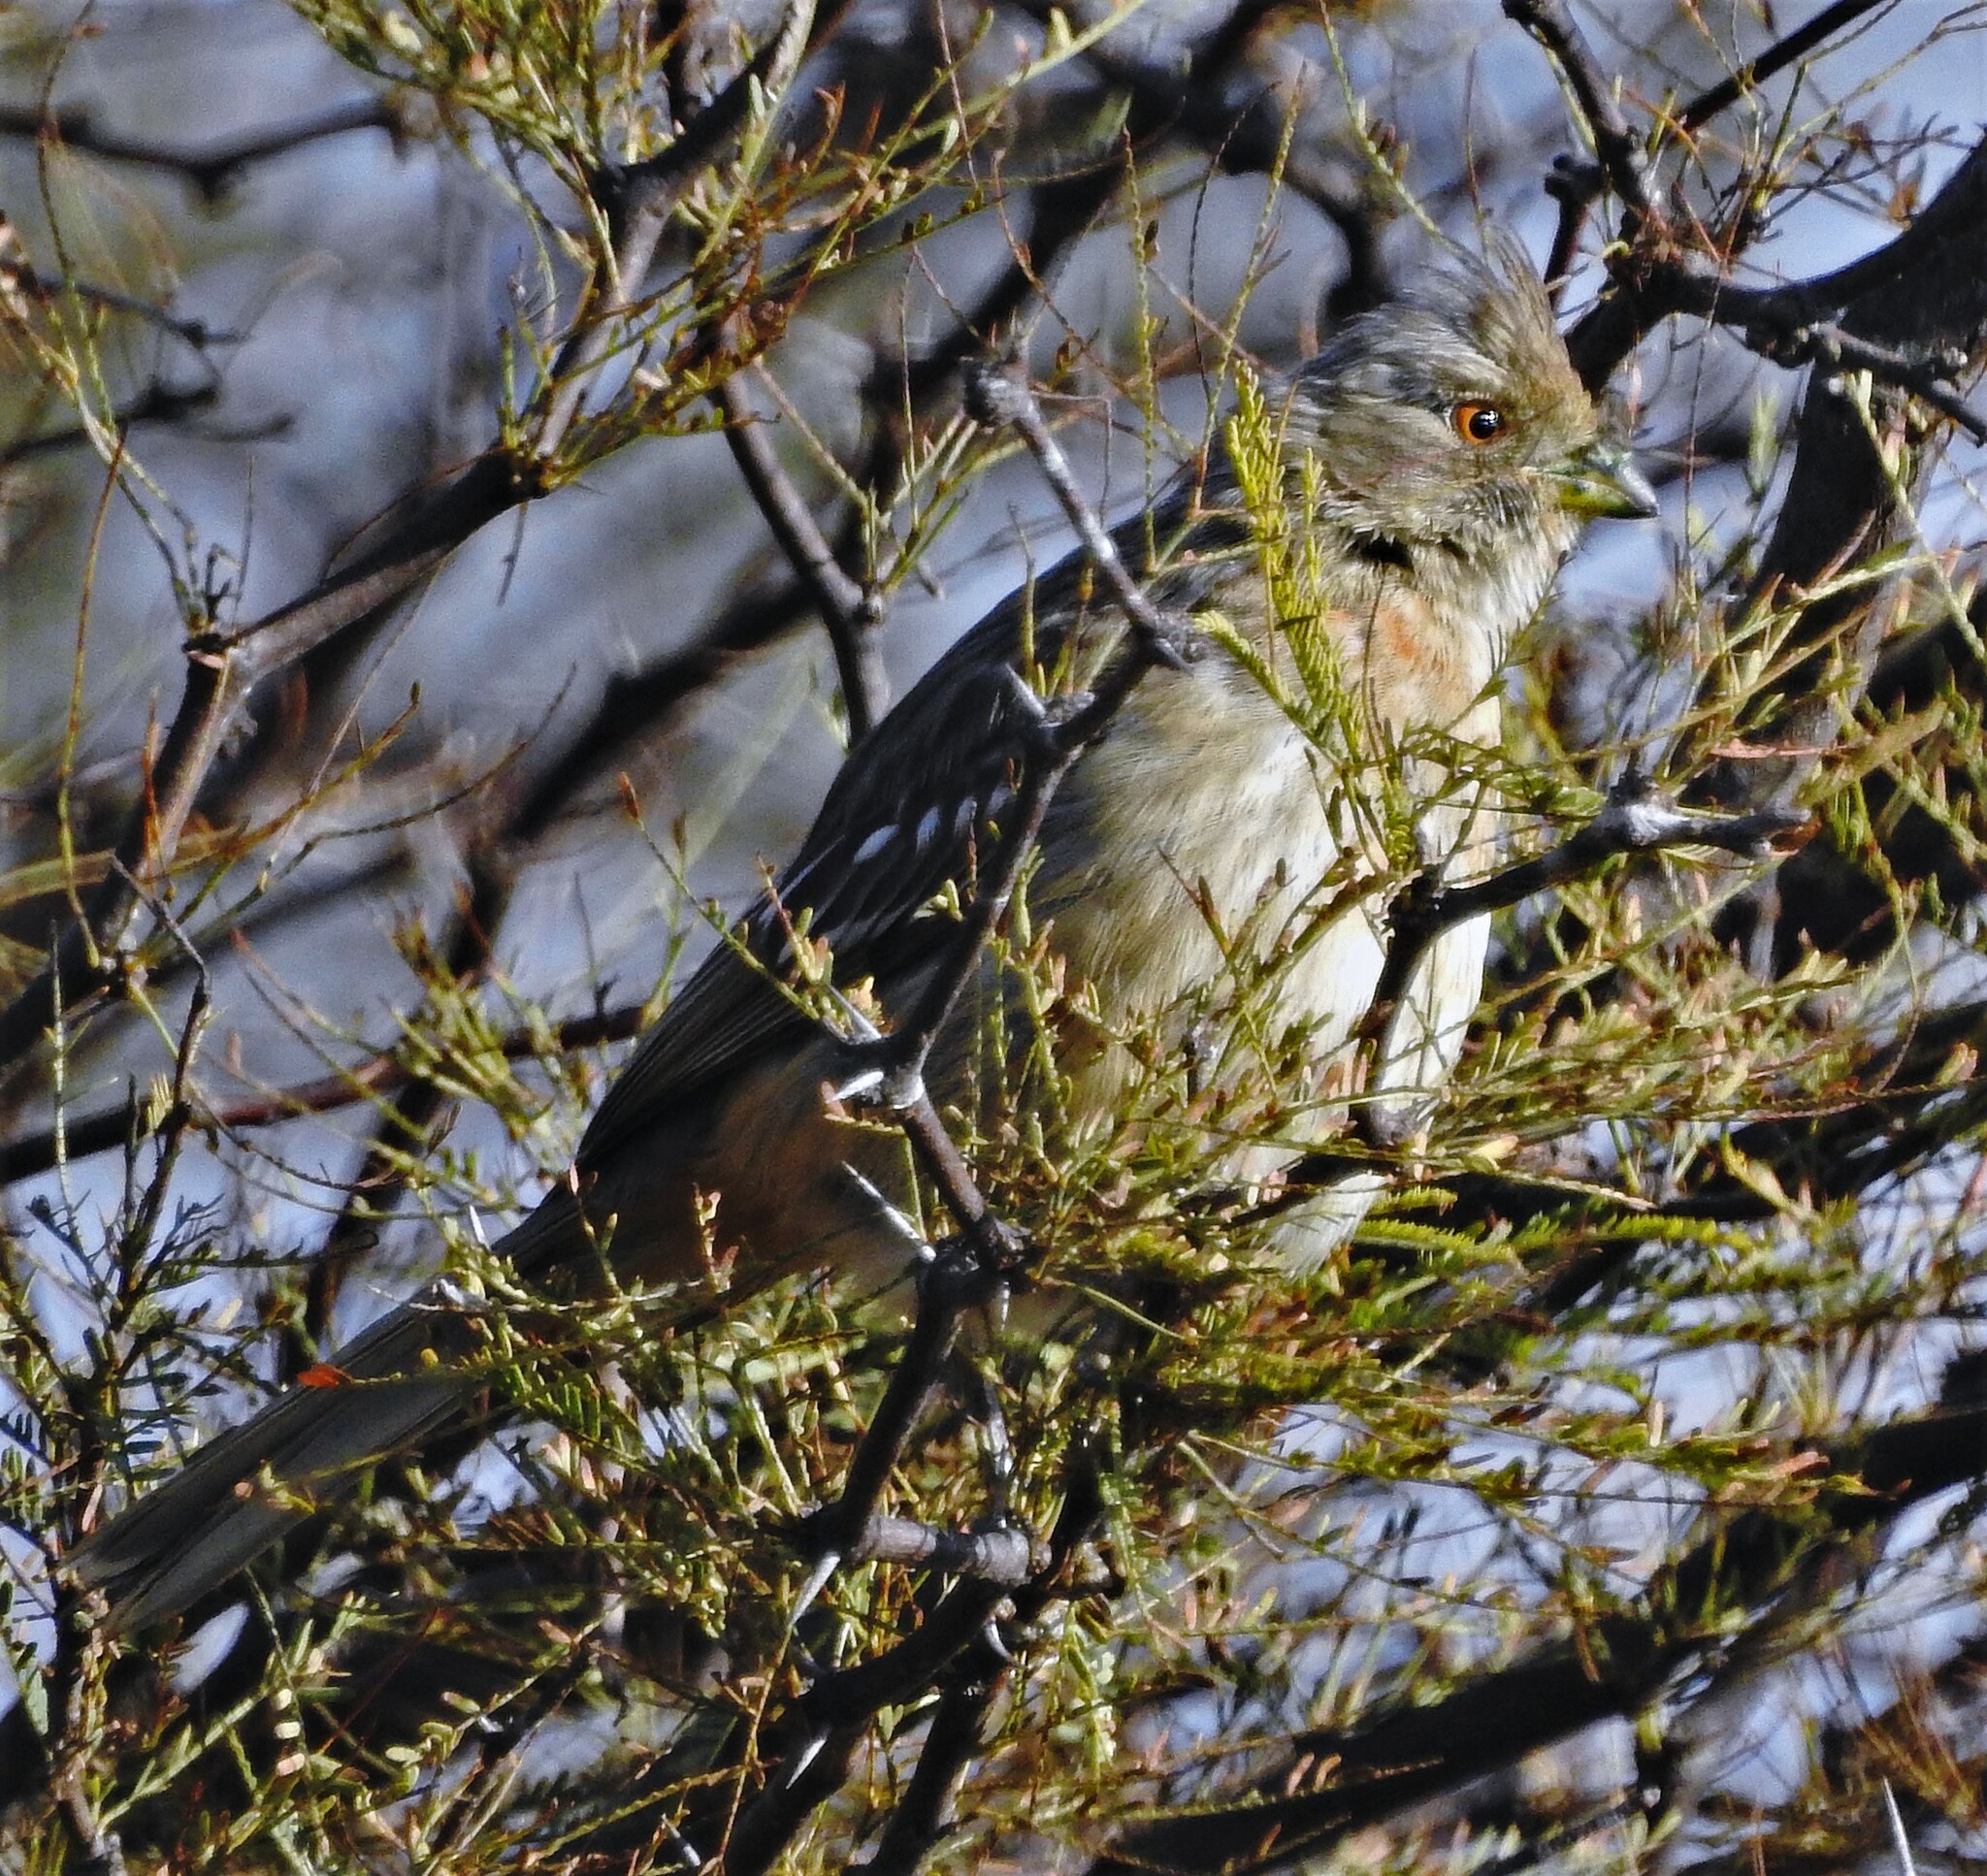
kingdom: Animalia
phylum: Chordata
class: Aves
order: Passeriformes
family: Cotingidae
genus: Phytotoma
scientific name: Phytotoma rutila
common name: White-tipped plantcutter
